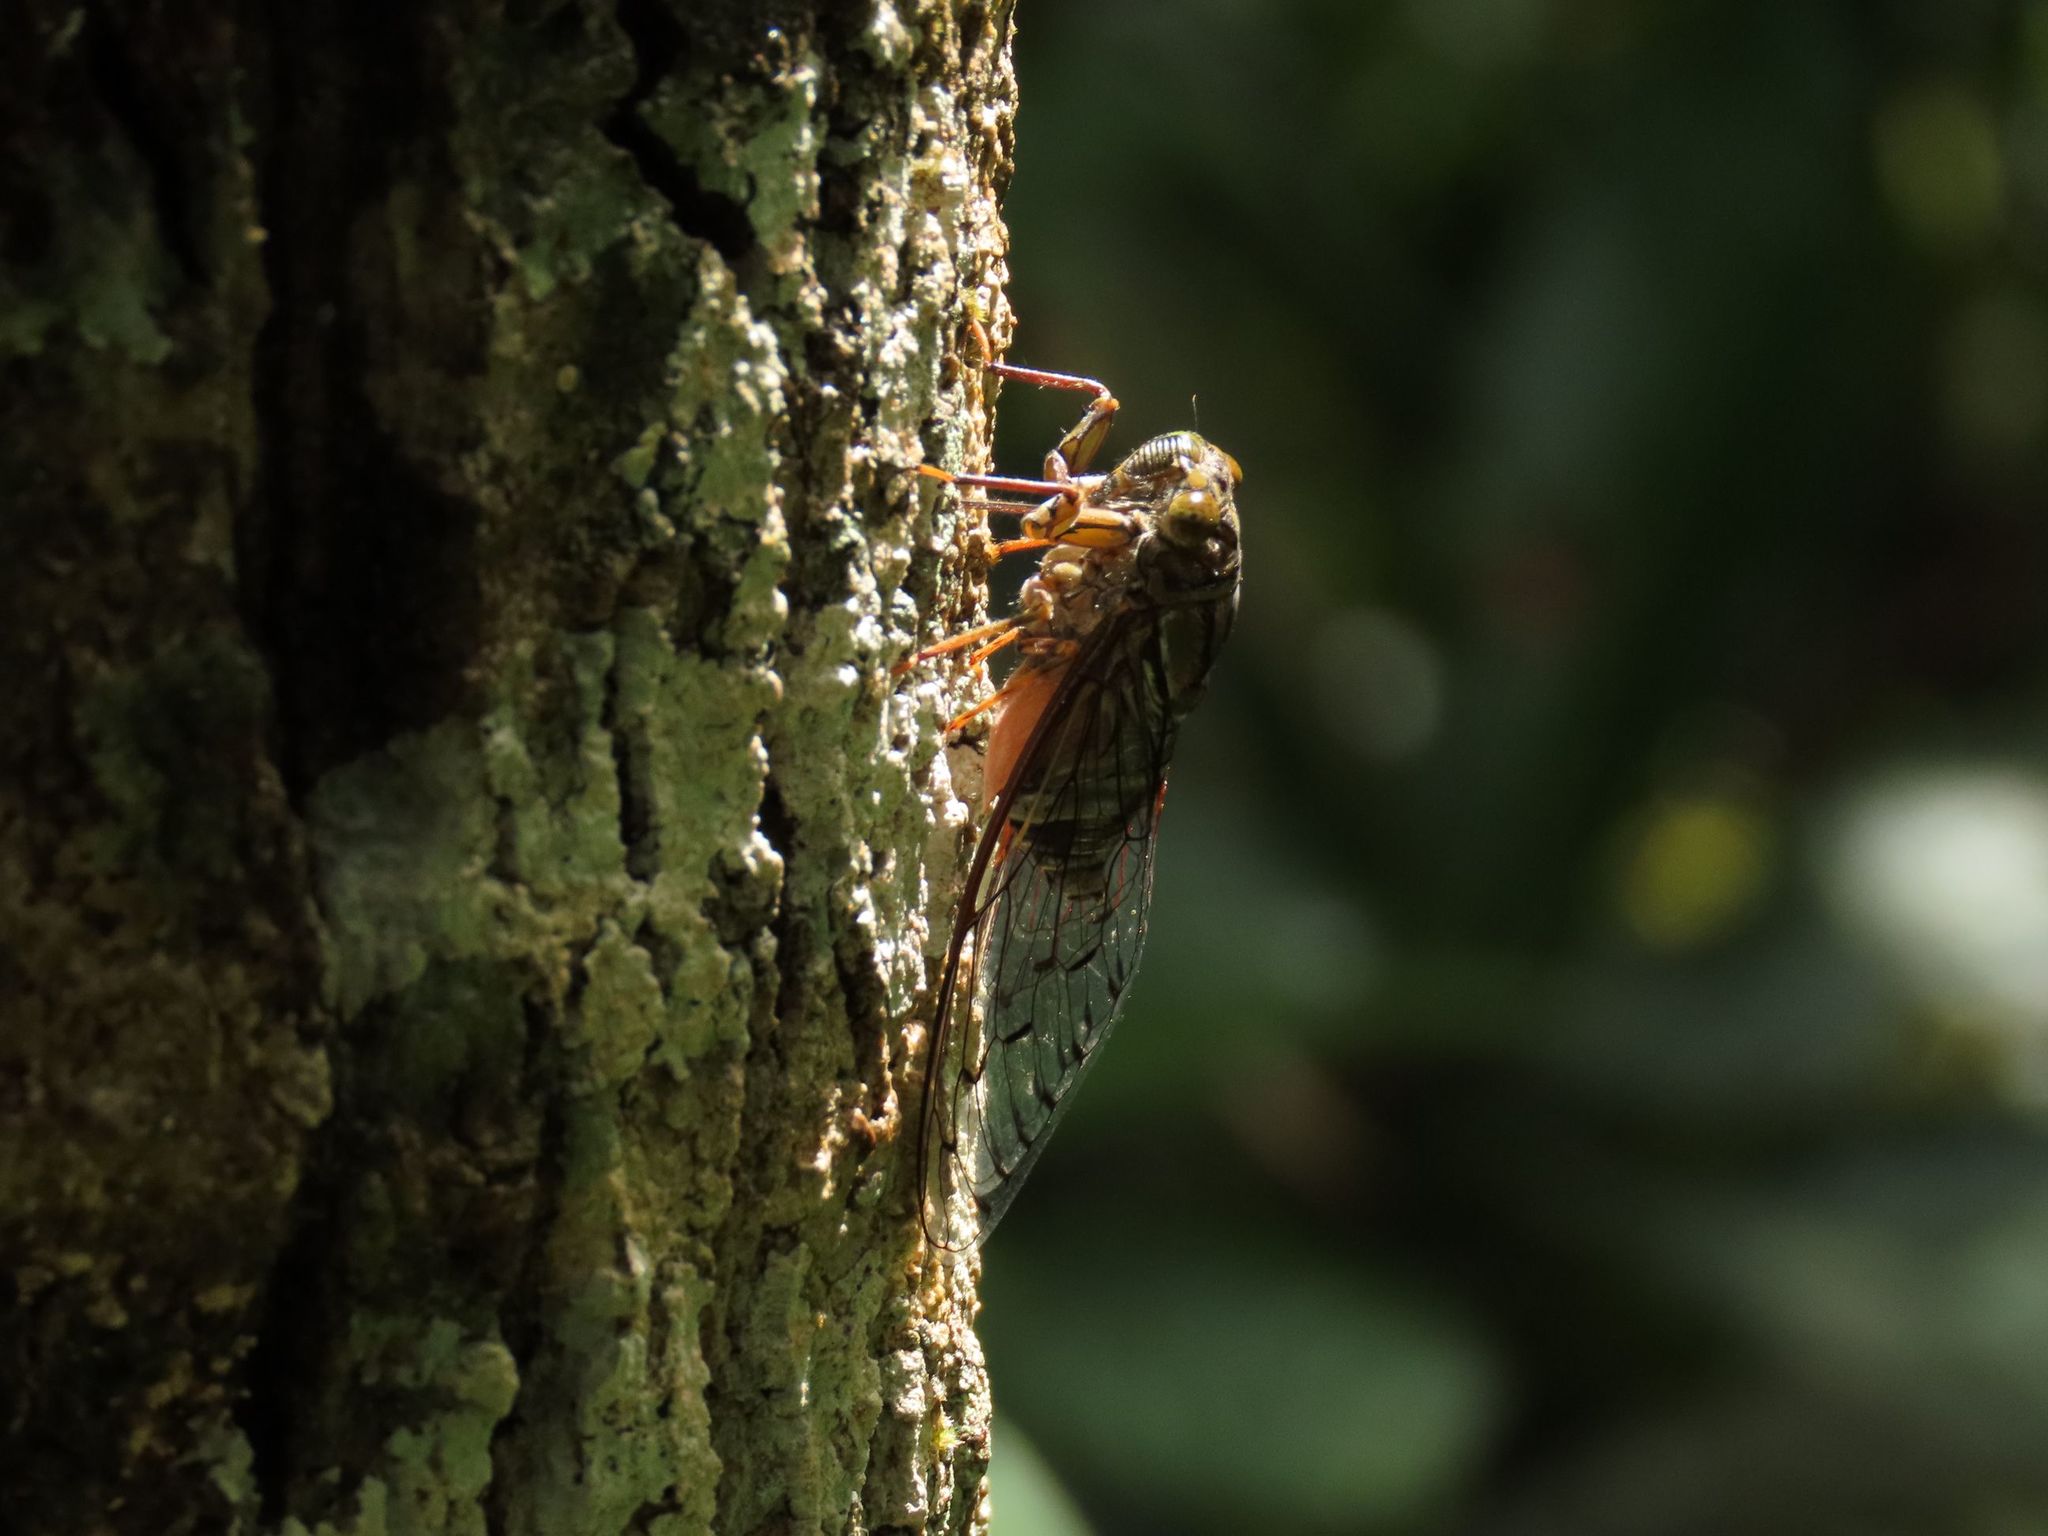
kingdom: Animalia
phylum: Arthropoda
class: Insecta
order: Hemiptera
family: Cicadidae
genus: Henicopsaltria
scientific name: Henicopsaltria rufivelum
